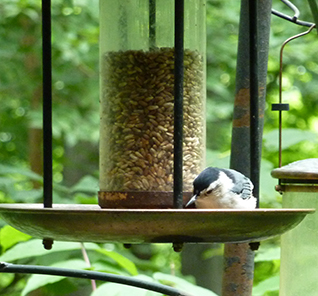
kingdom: Animalia
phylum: Chordata
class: Aves
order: Passeriformes
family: Sittidae
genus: Sitta
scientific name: Sitta carolinensis
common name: White-breasted nuthatch
